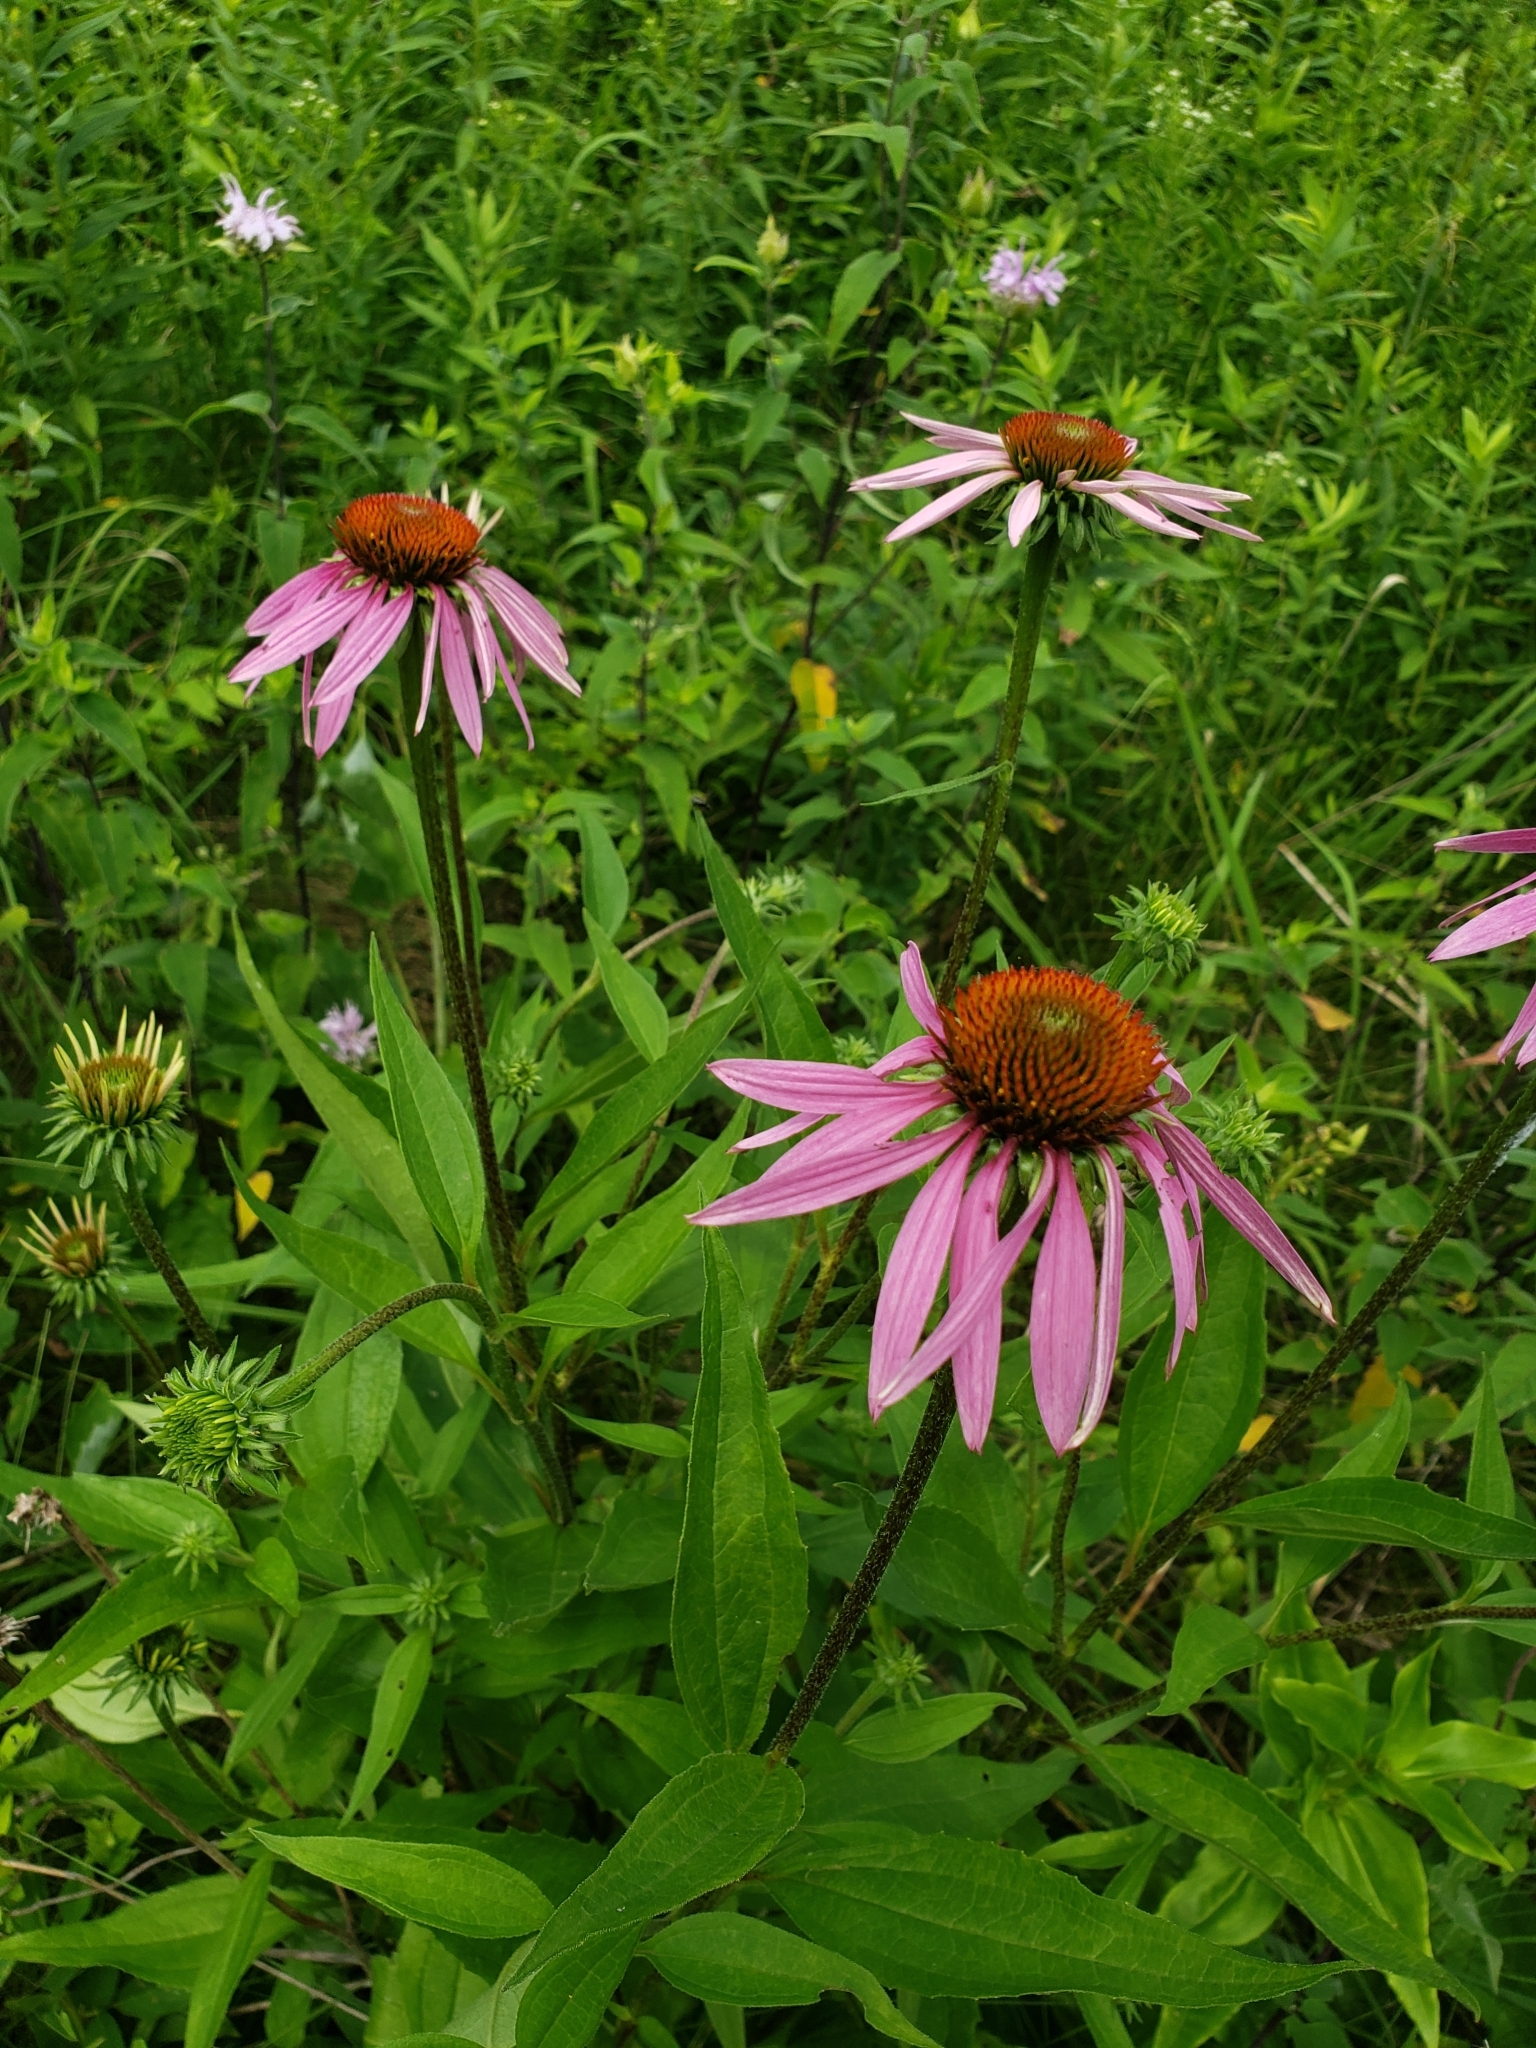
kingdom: Plantae
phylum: Tracheophyta
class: Magnoliopsida
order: Asterales
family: Asteraceae
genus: Echinacea
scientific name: Echinacea purpurea
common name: Broad-leaved purple coneflower
